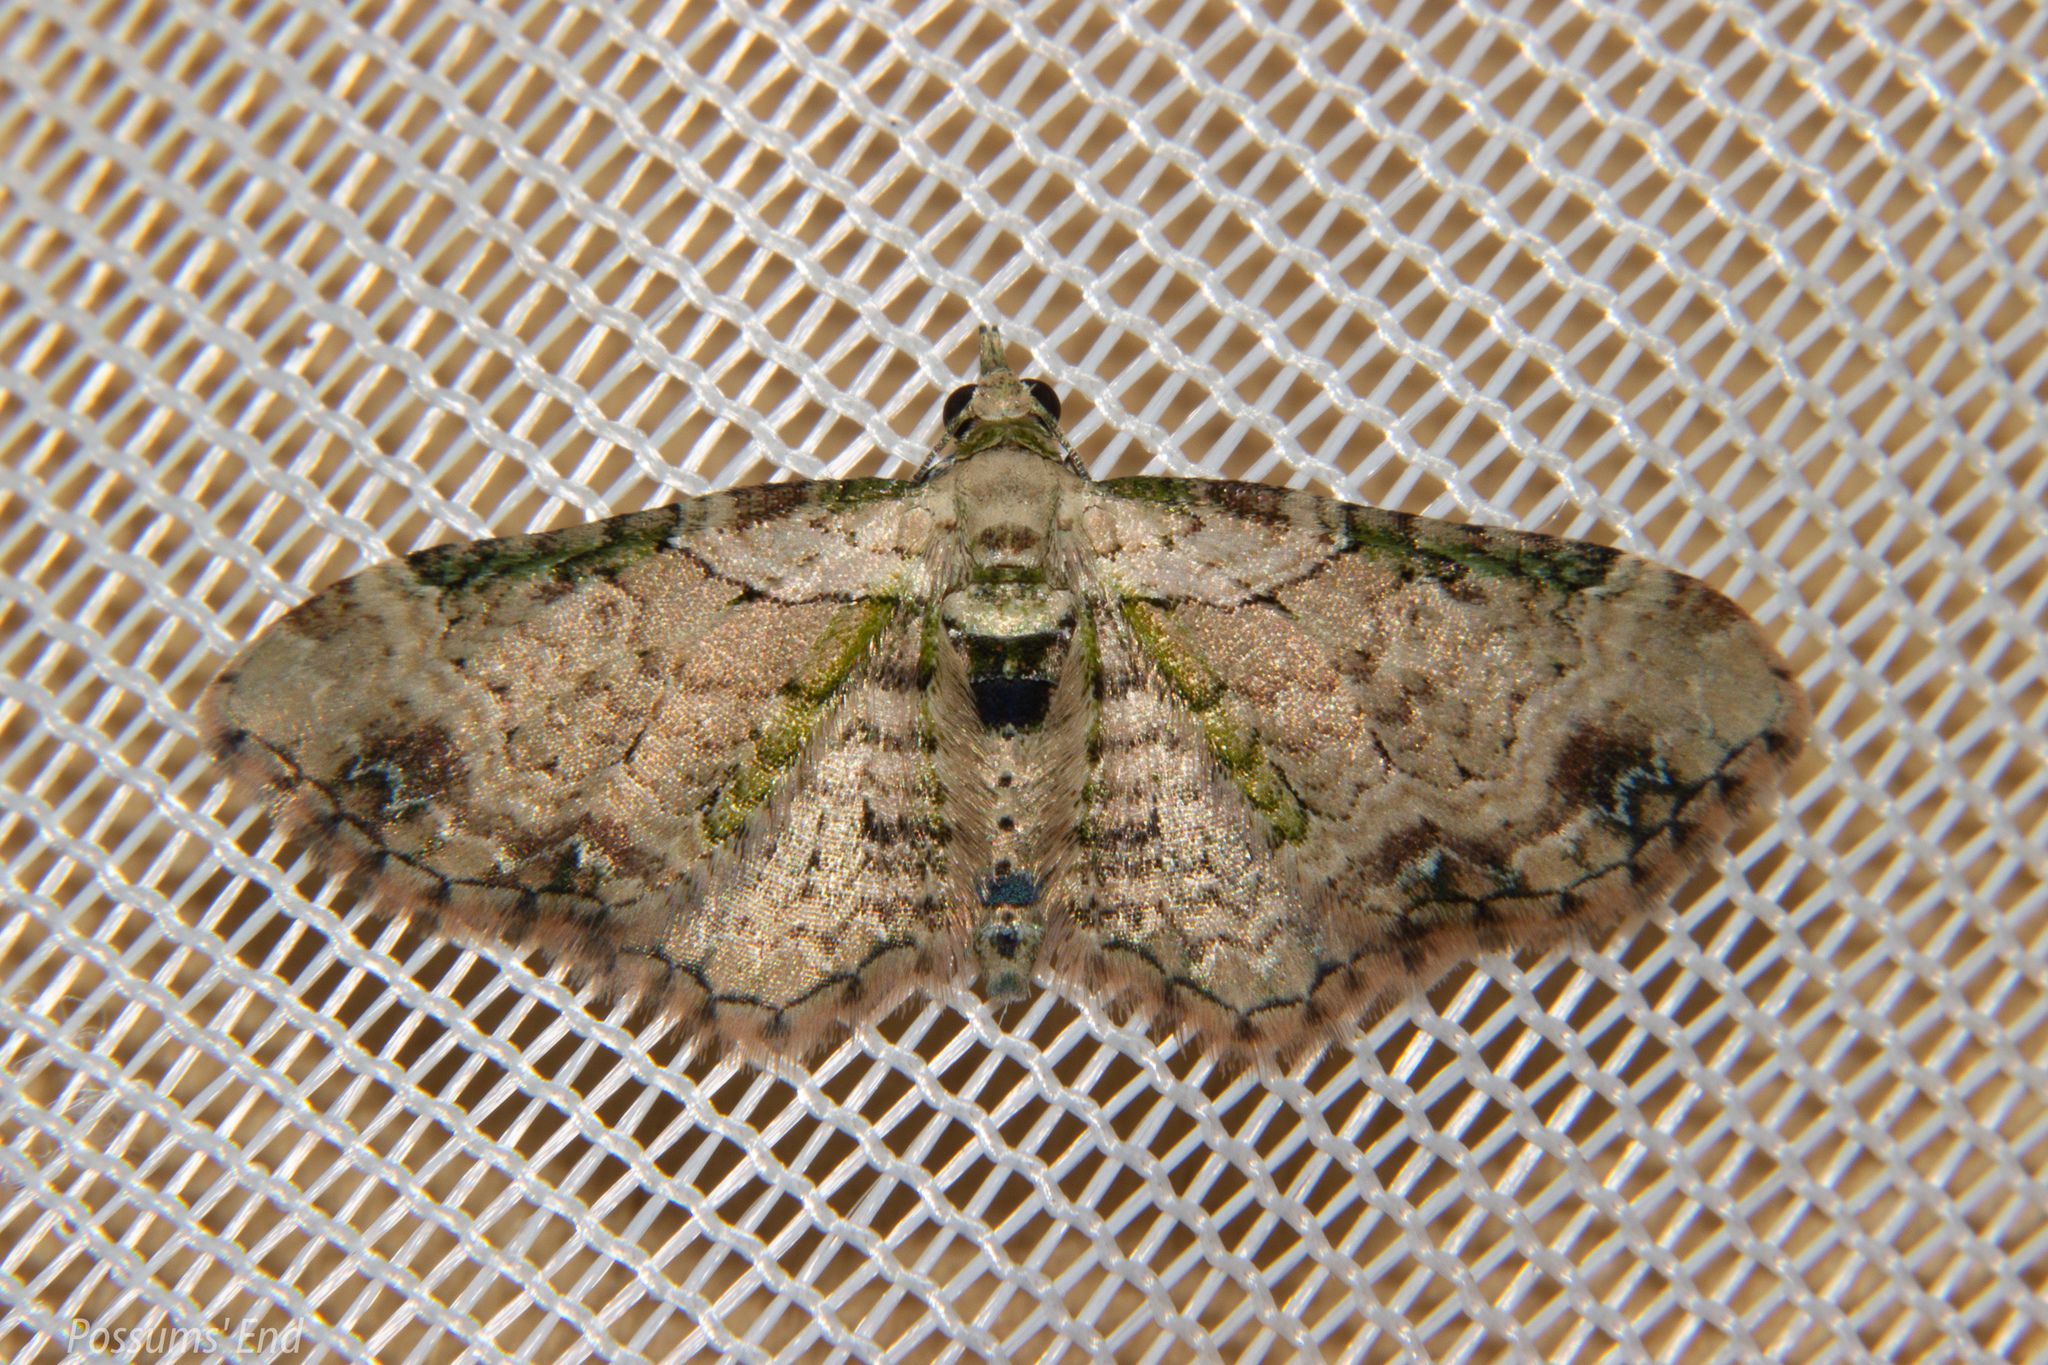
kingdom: Animalia
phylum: Arthropoda
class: Insecta
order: Lepidoptera
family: Geometridae
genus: Chloroclystis
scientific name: Chloroclystis
